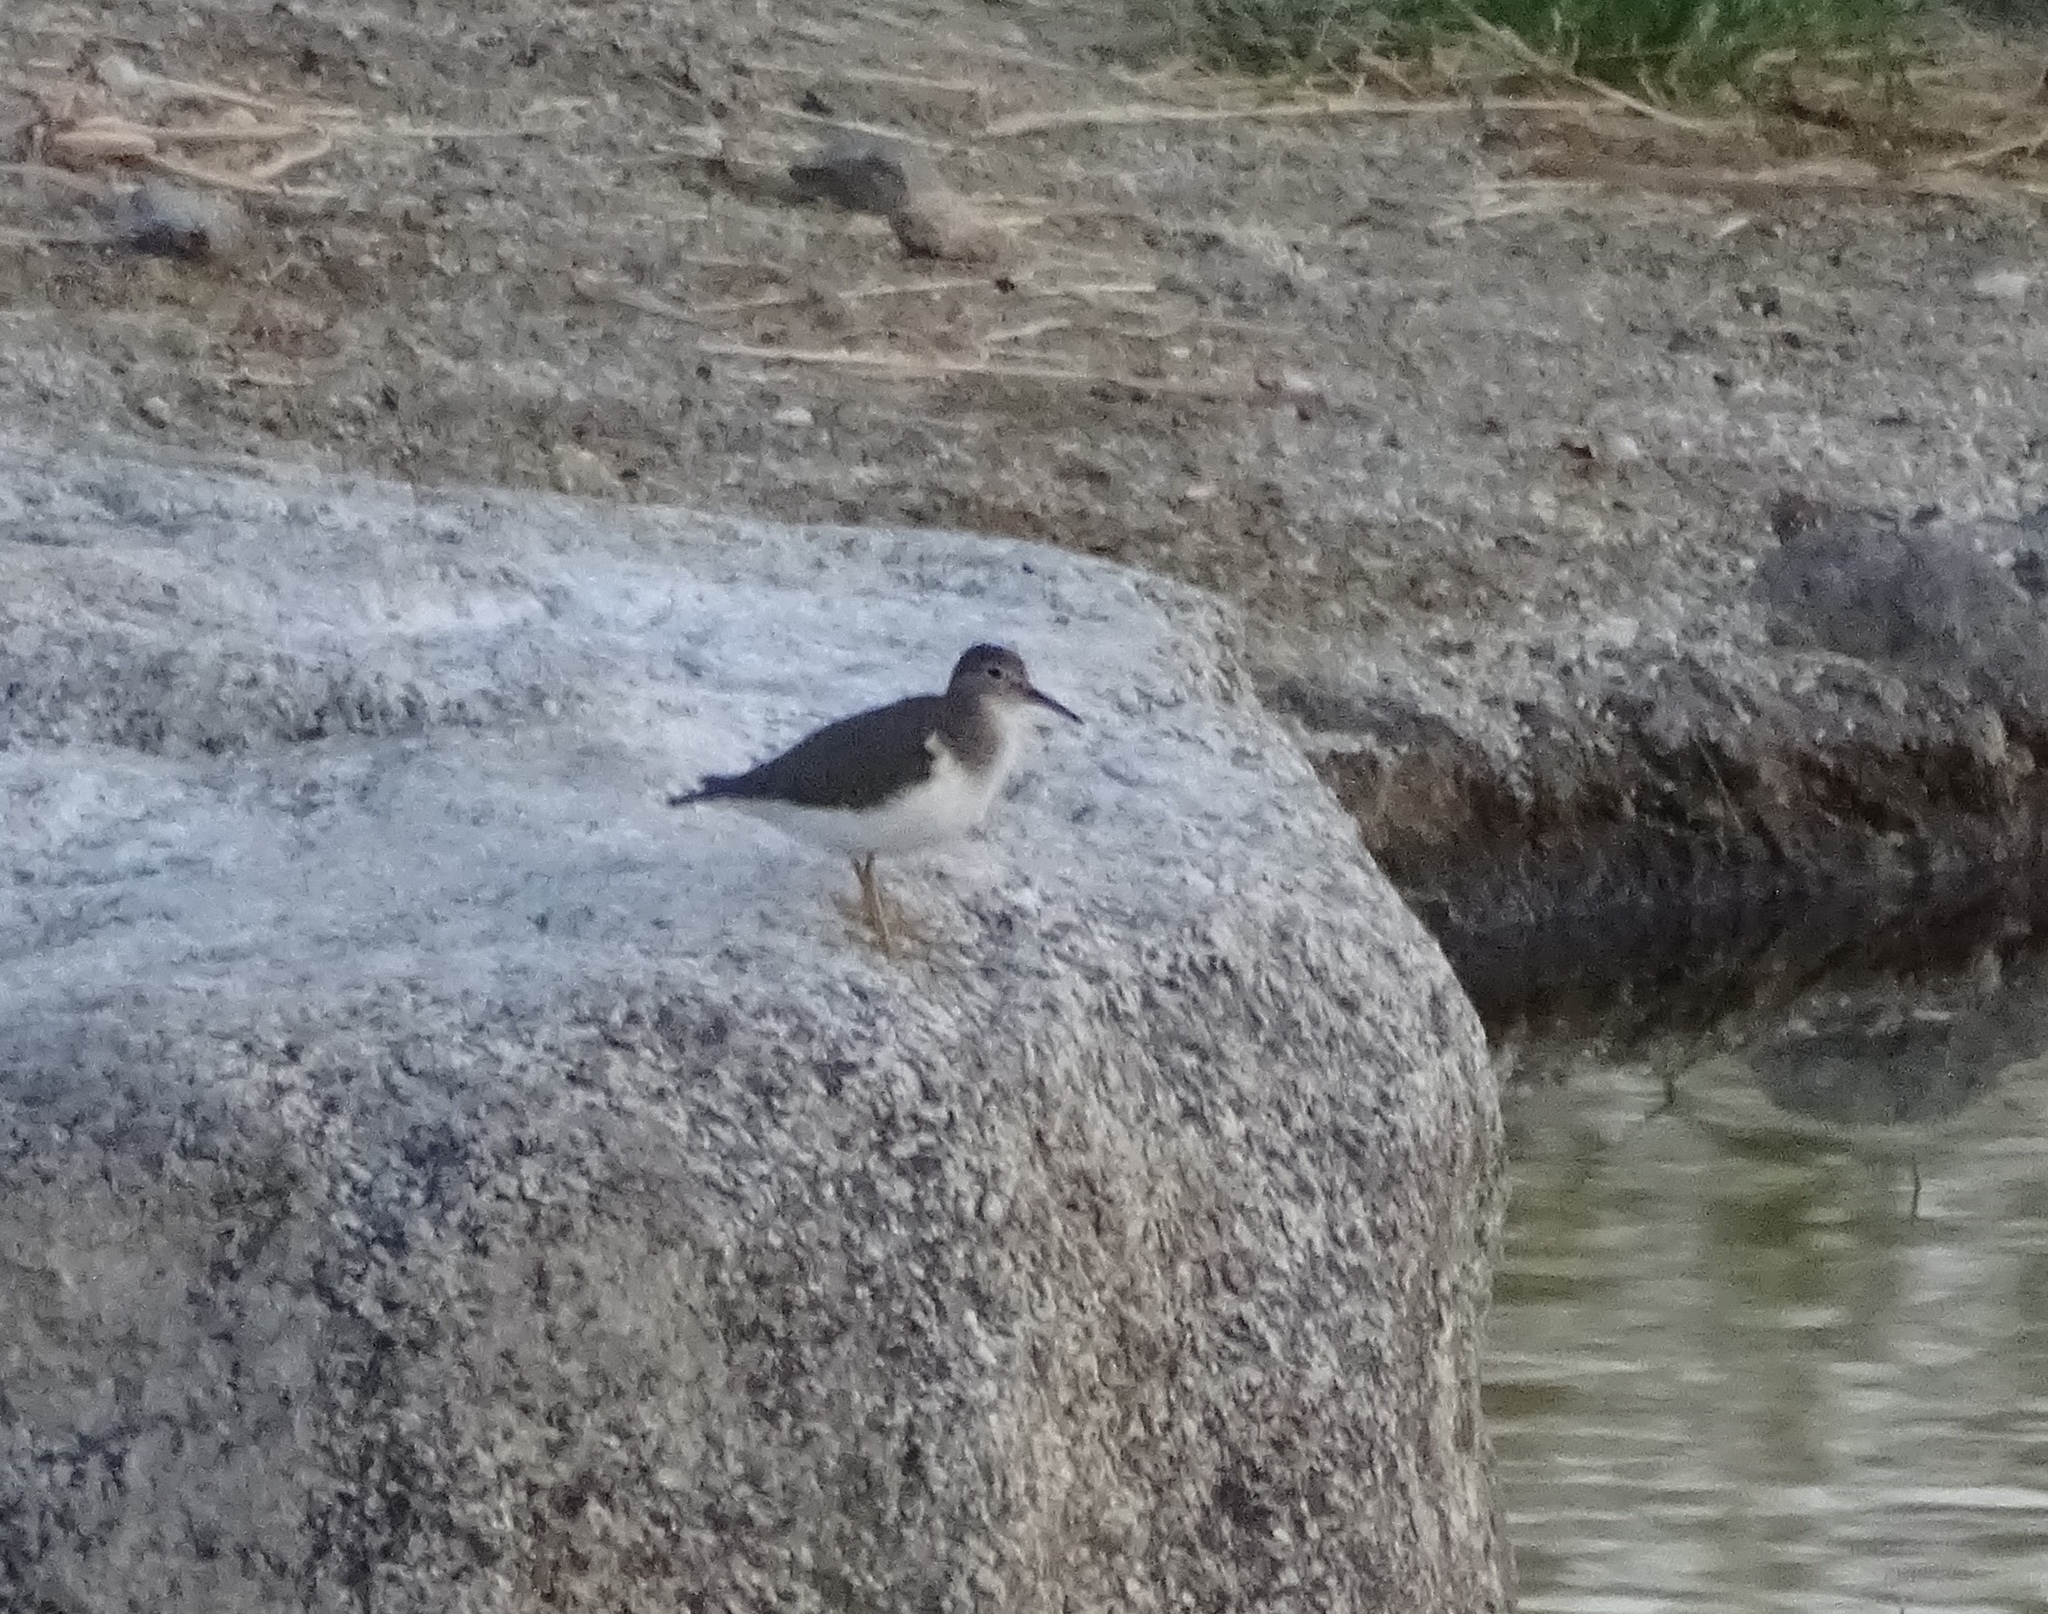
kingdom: Animalia
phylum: Chordata
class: Aves
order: Charadriiformes
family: Scolopacidae
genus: Actitis
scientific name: Actitis macularius
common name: Spotted sandpiper
